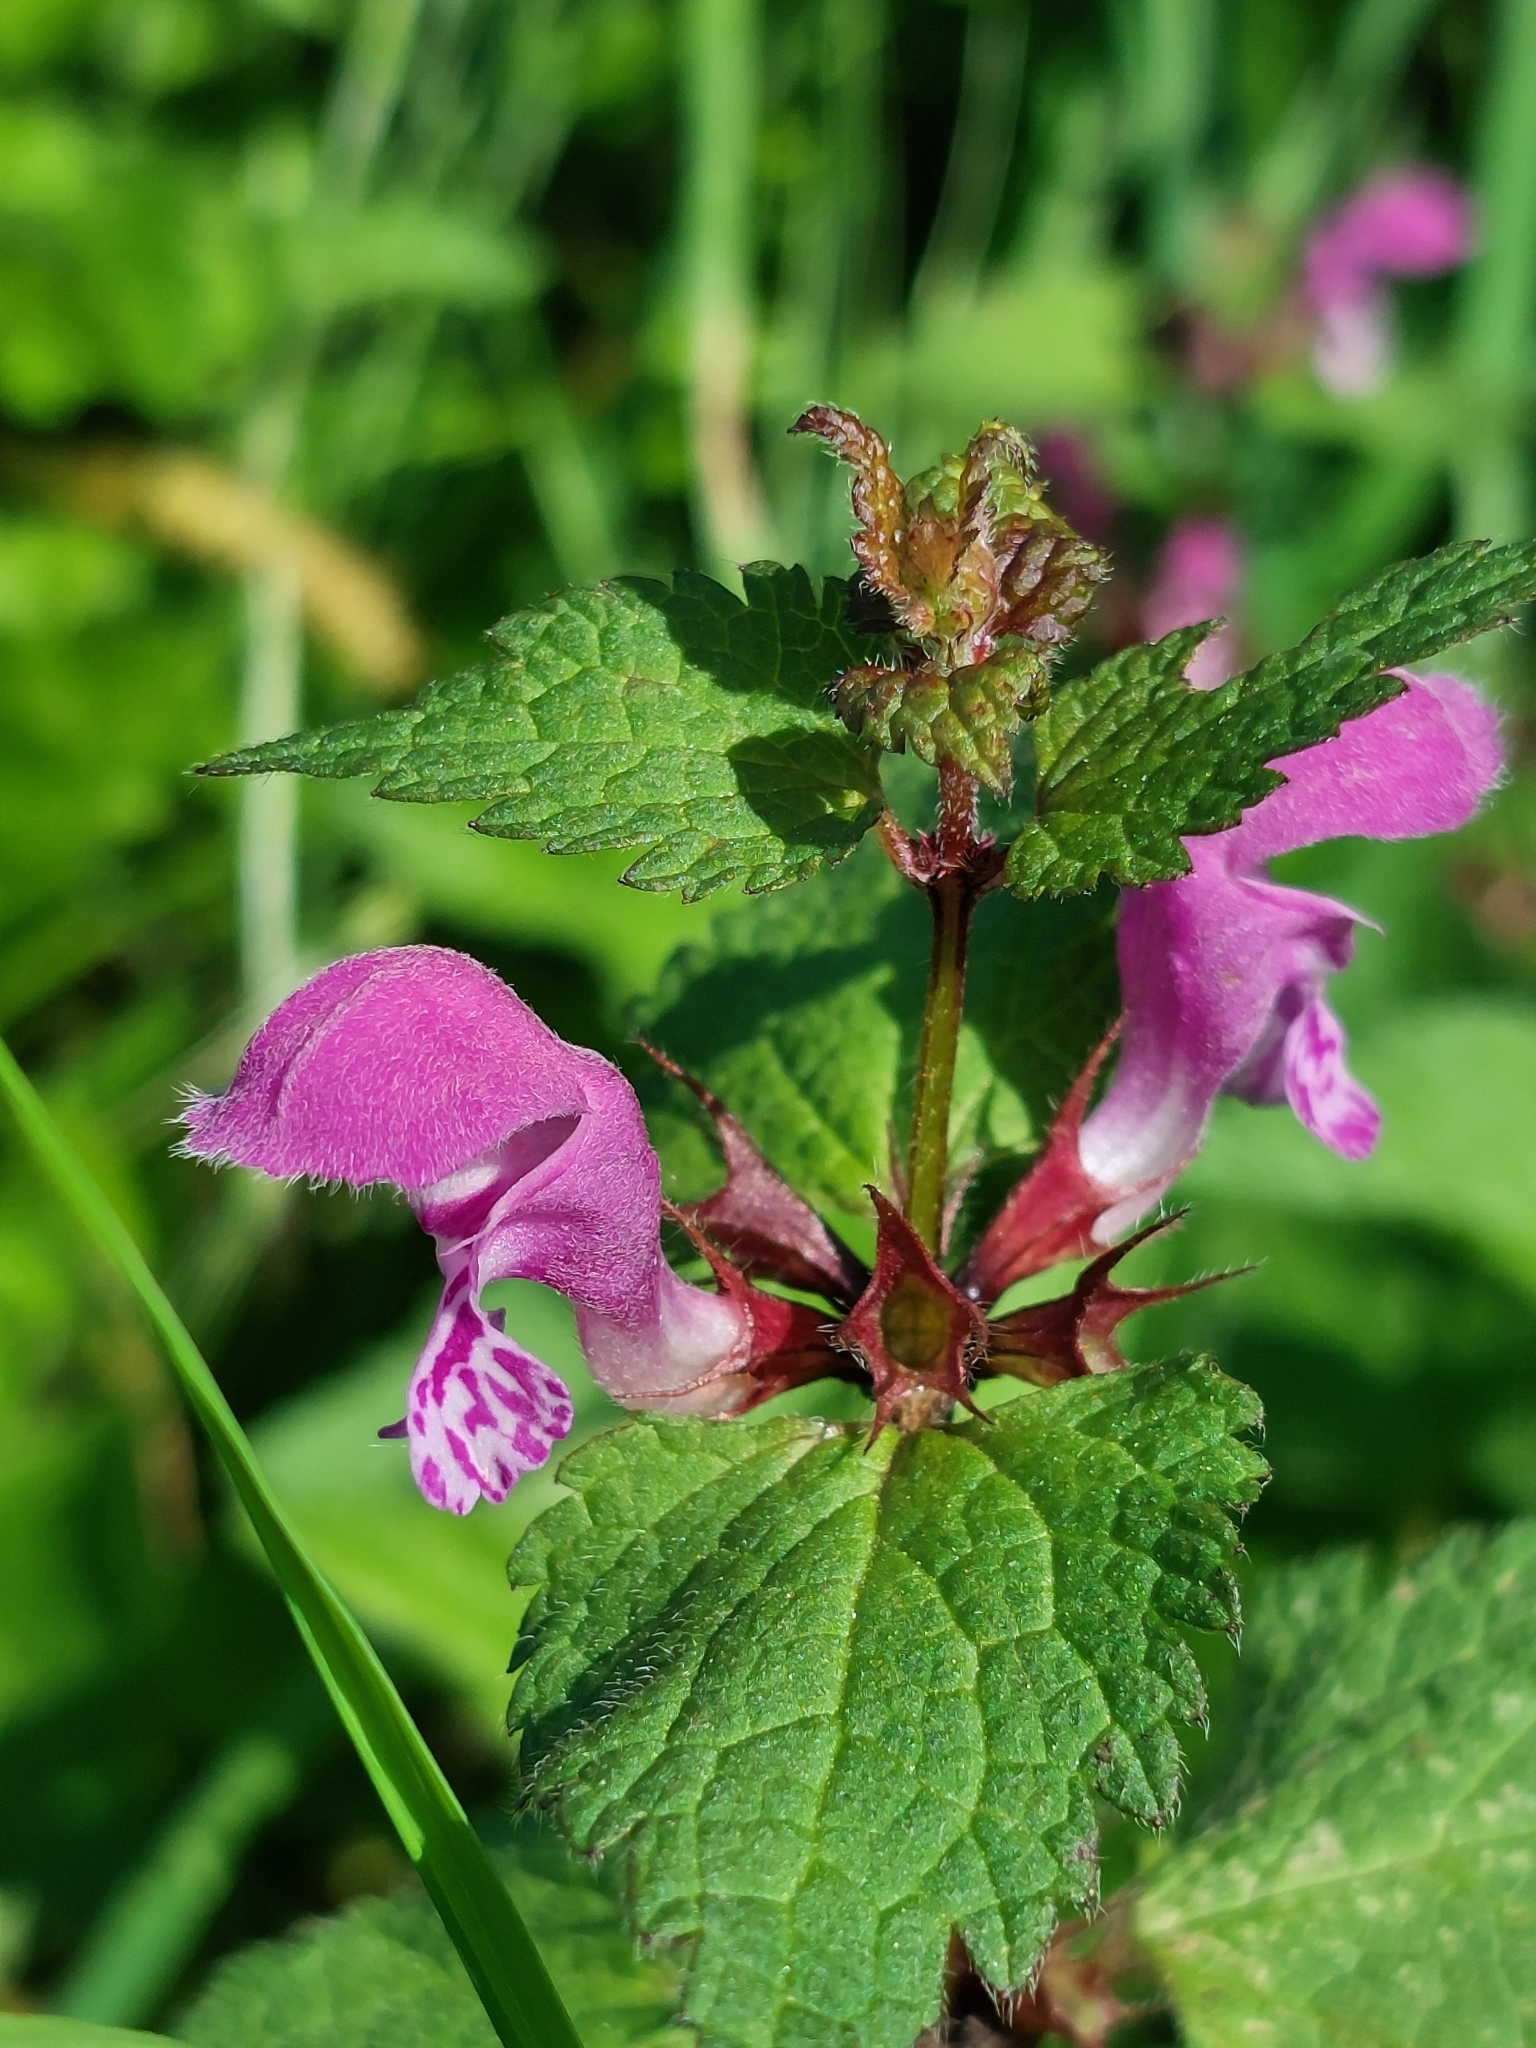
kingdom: Plantae
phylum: Tracheophyta
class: Magnoliopsida
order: Lamiales
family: Lamiaceae
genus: Lamium
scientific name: Lamium maculatum
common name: Spotted dead-nettle
